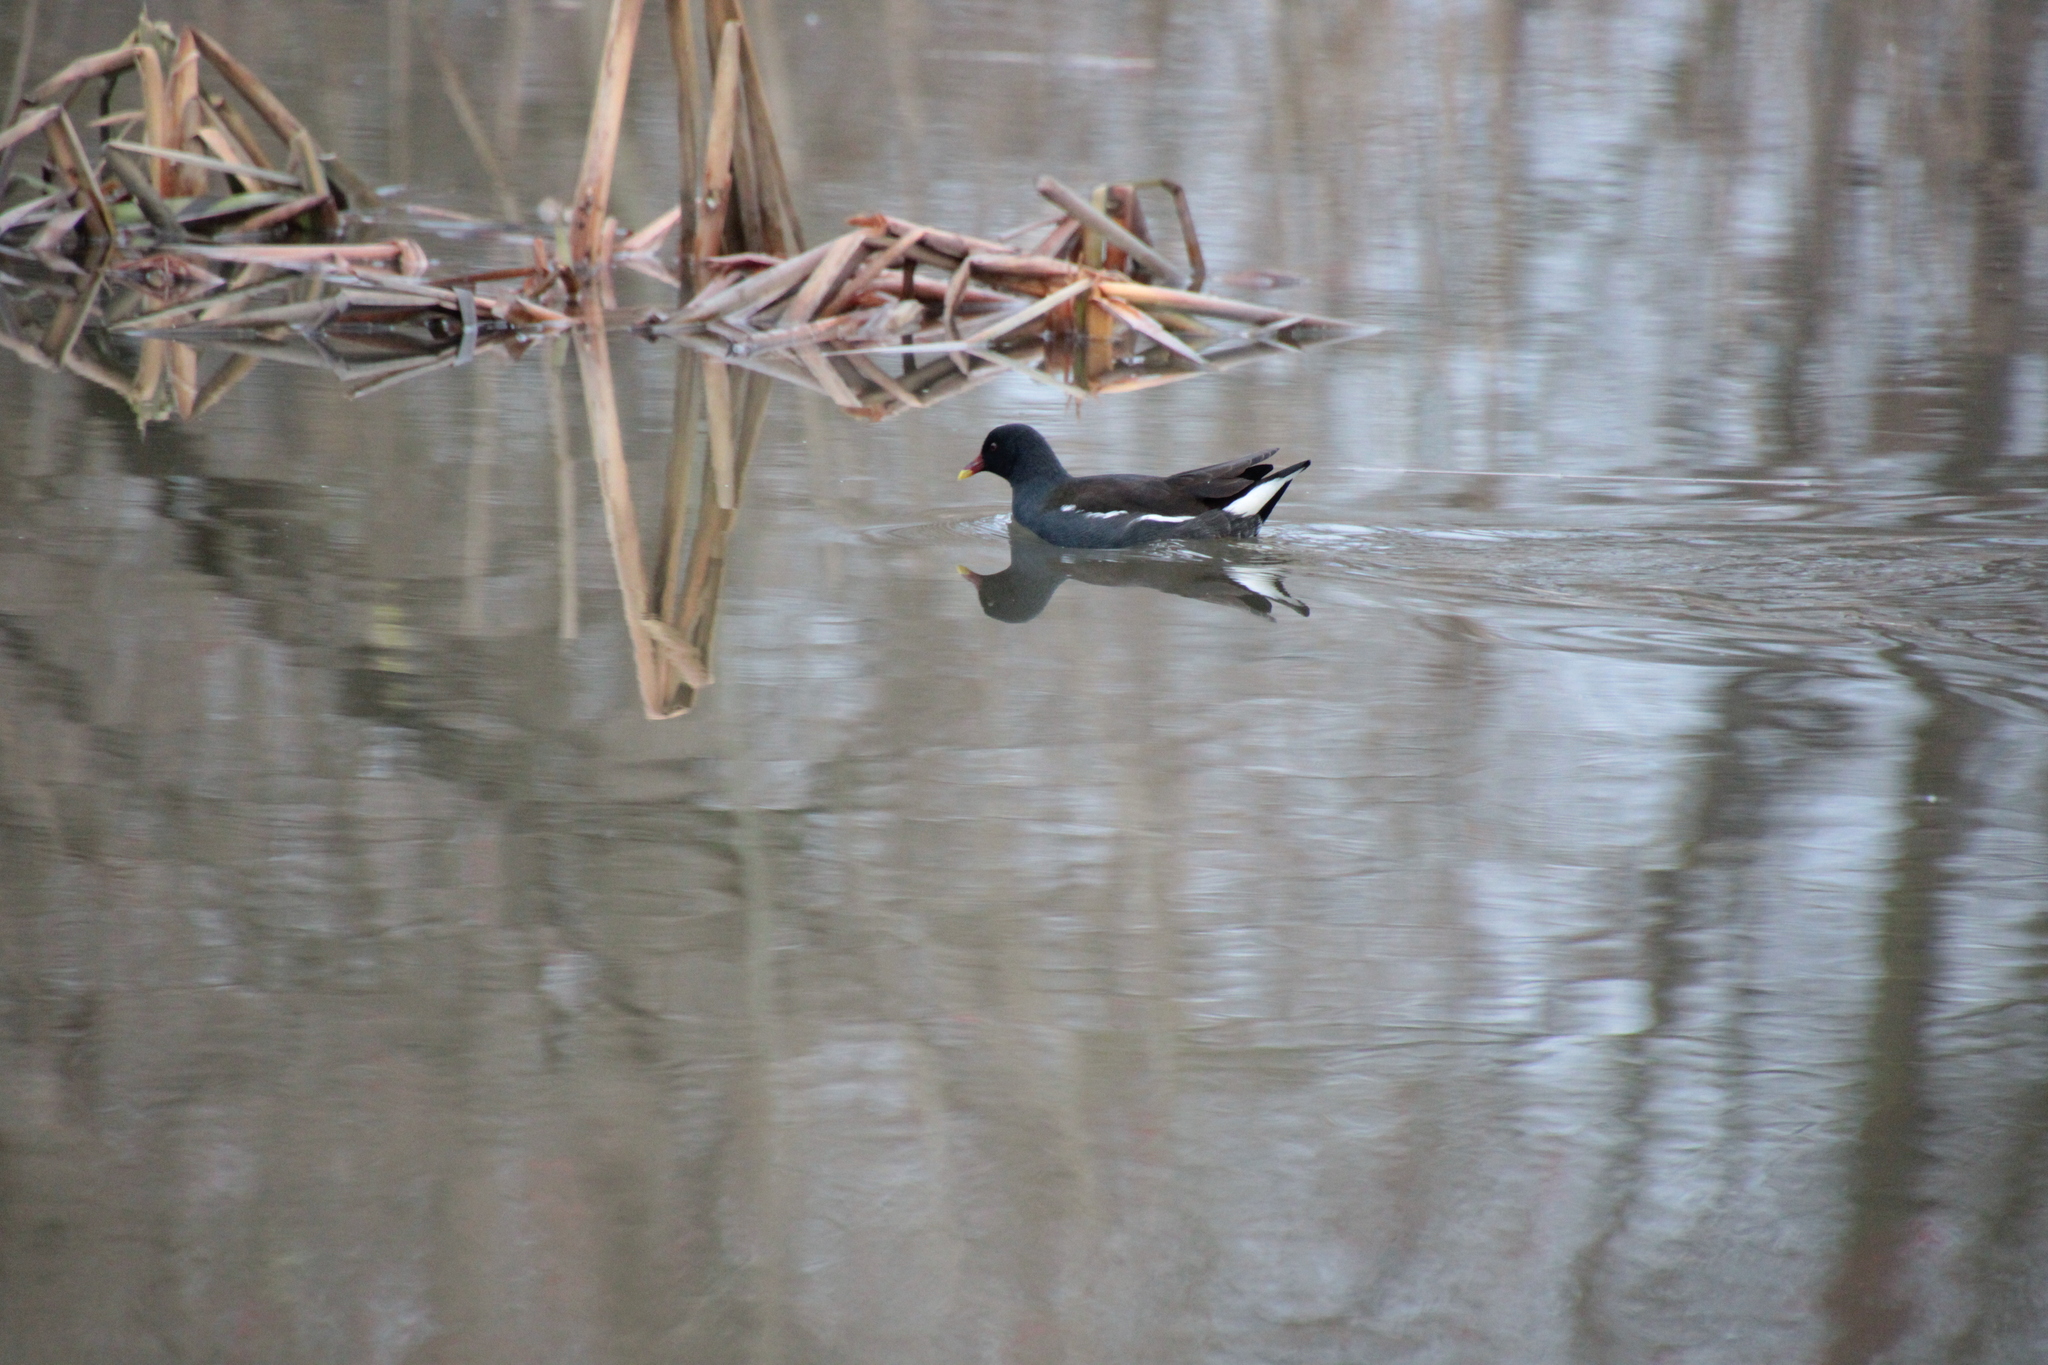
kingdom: Animalia
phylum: Chordata
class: Aves
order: Gruiformes
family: Rallidae
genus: Gallinula
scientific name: Gallinula chloropus
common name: Common moorhen
